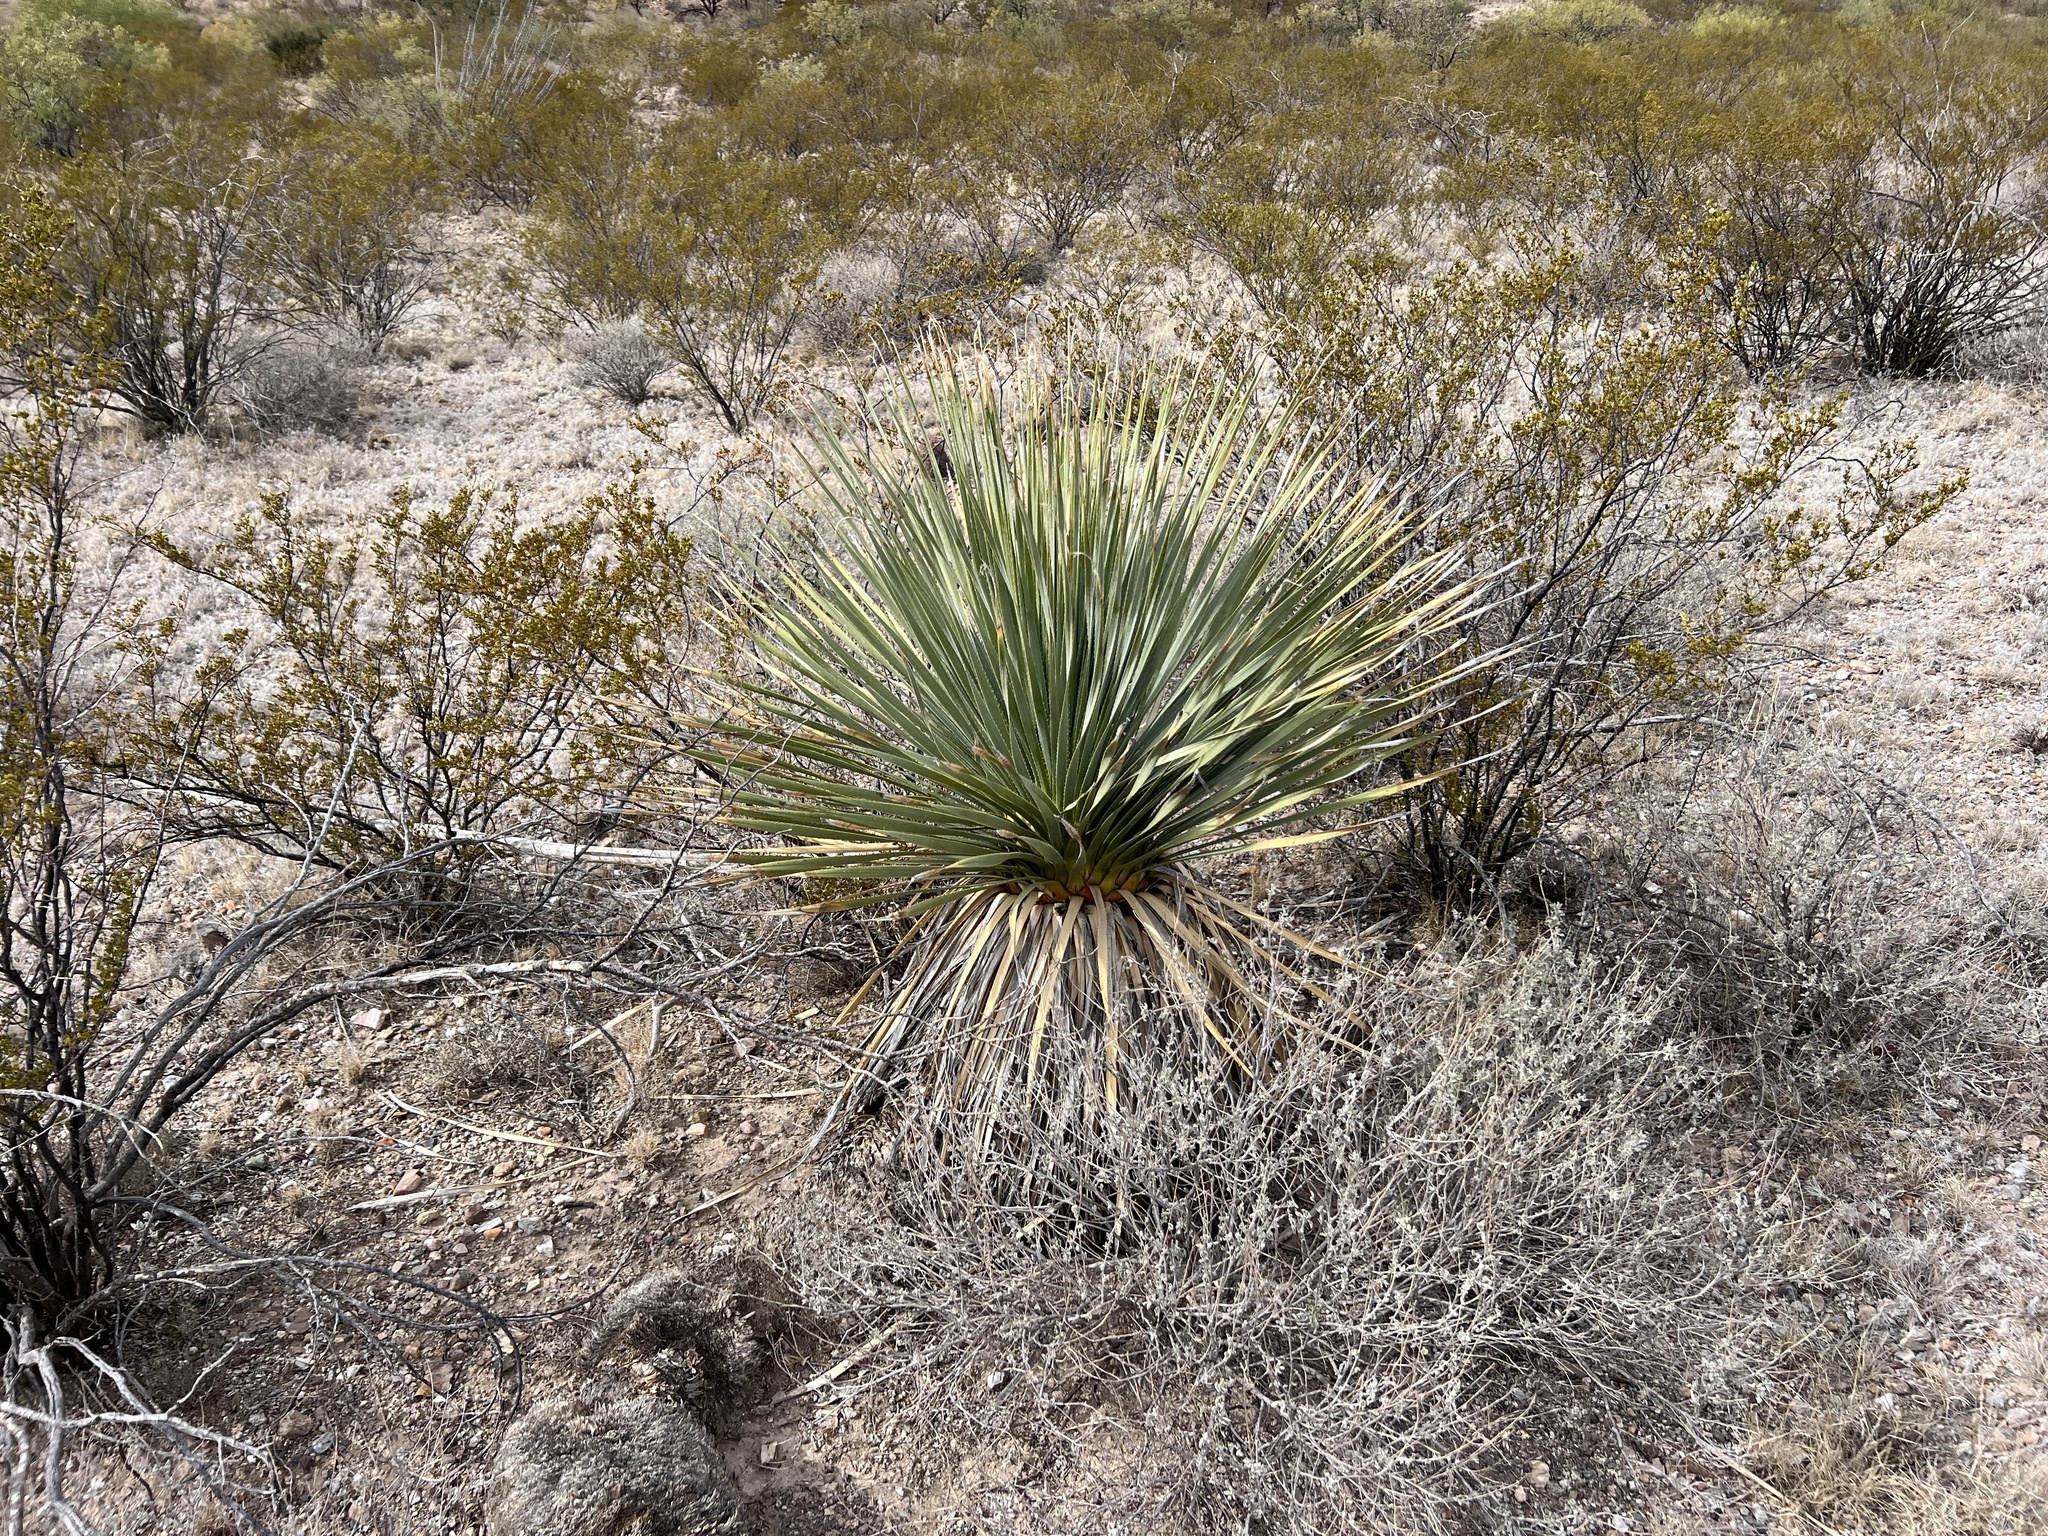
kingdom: Plantae
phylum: Tracheophyta
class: Liliopsida
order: Asparagales
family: Asparagaceae
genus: Dasylirion
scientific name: Dasylirion wheeleri
